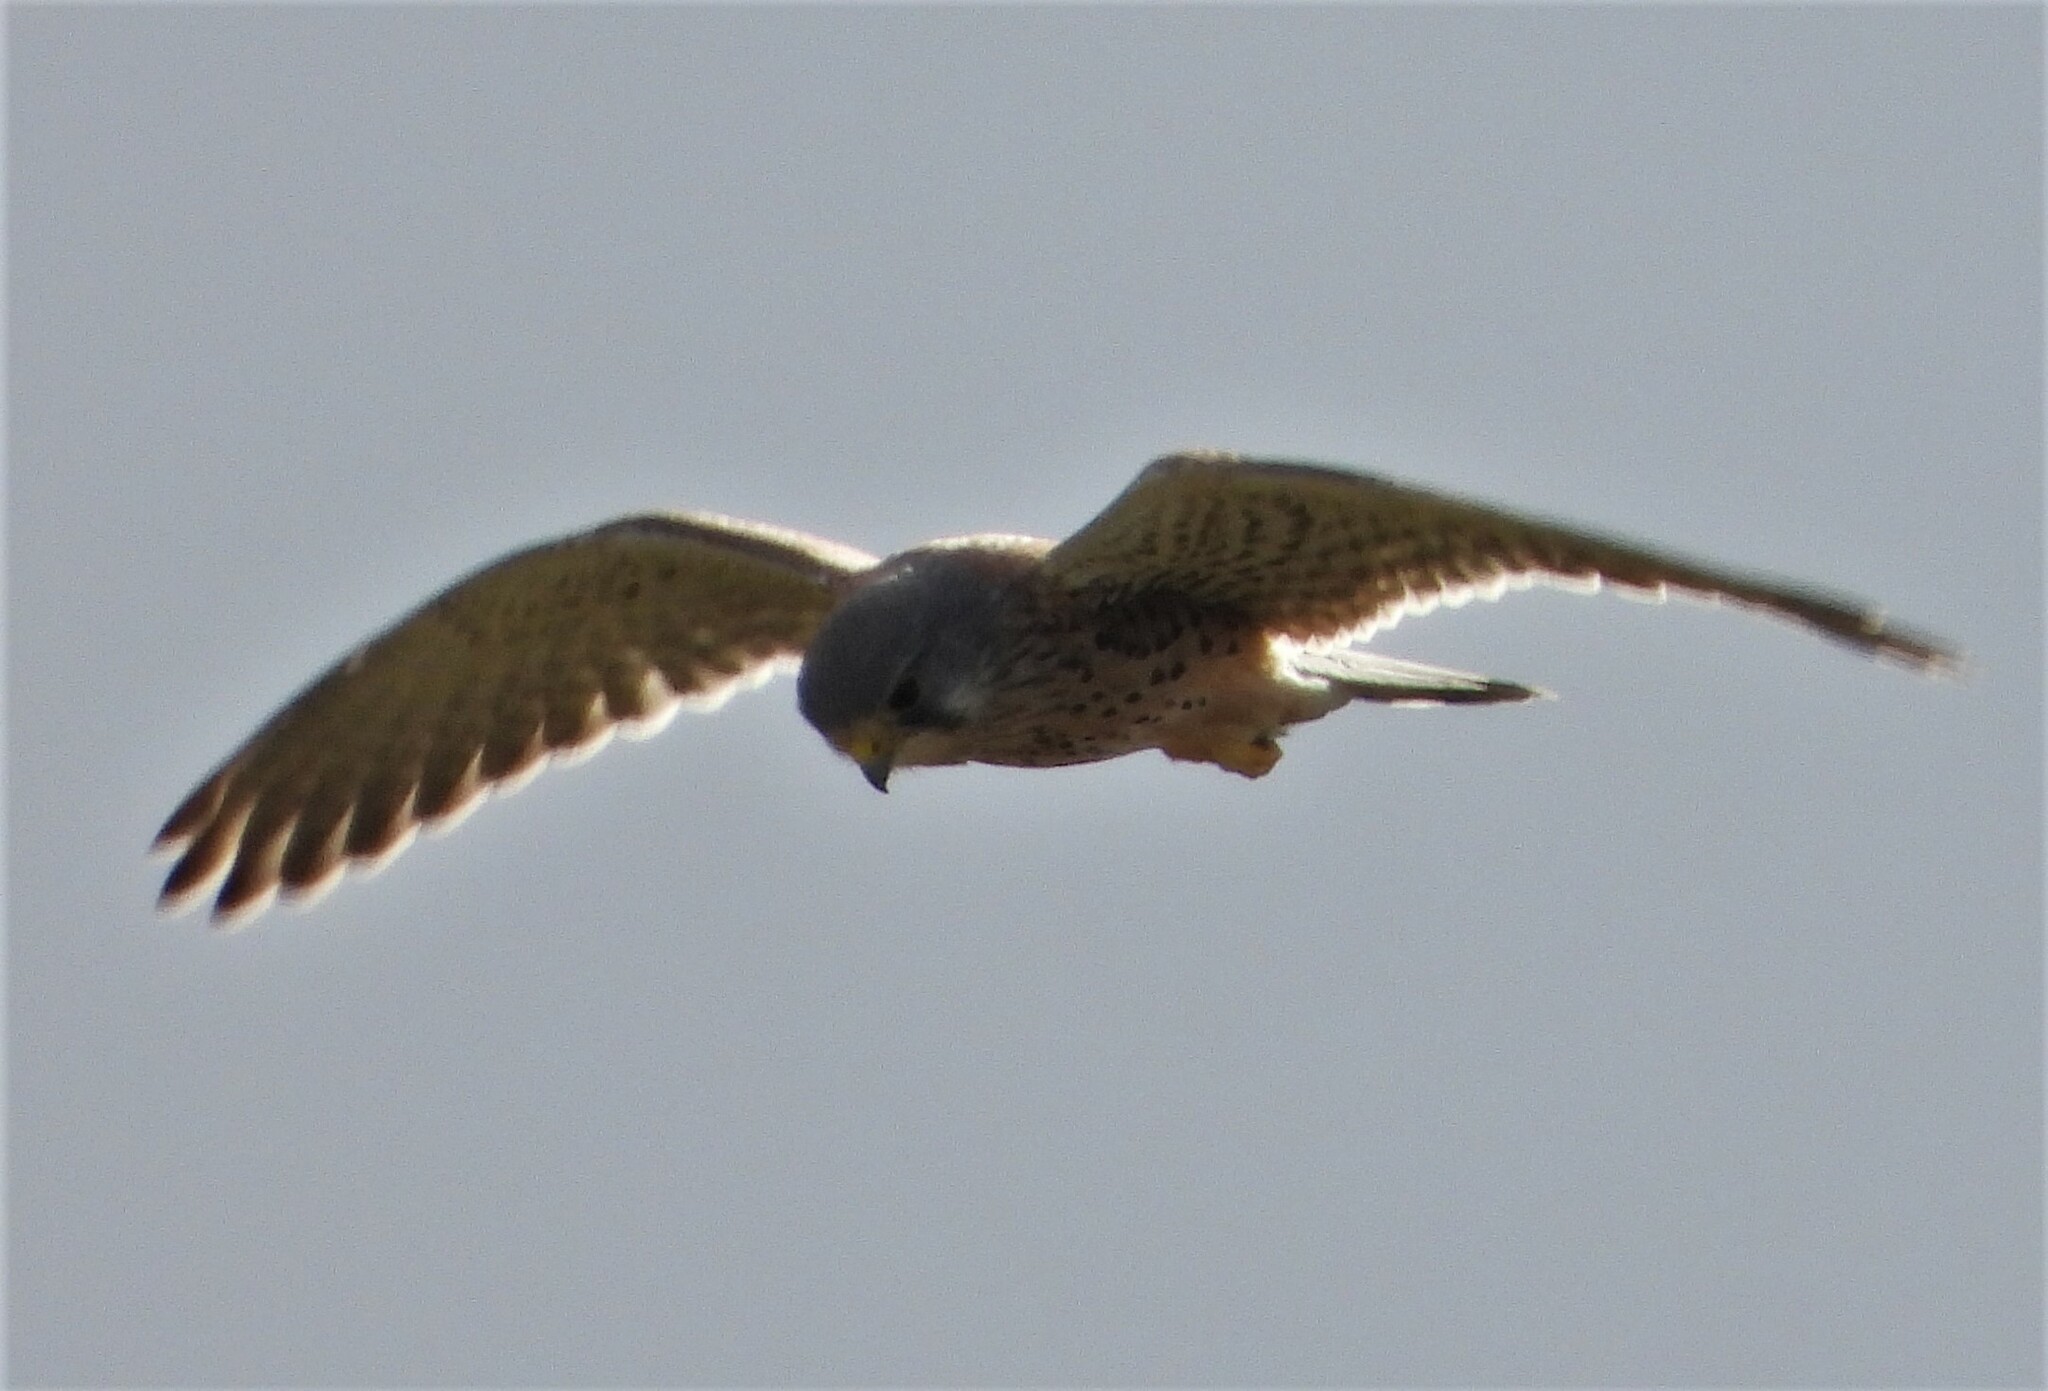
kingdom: Animalia
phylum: Chordata
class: Aves
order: Falconiformes
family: Falconidae
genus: Falco
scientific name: Falco tinnunculus
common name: Common kestrel
